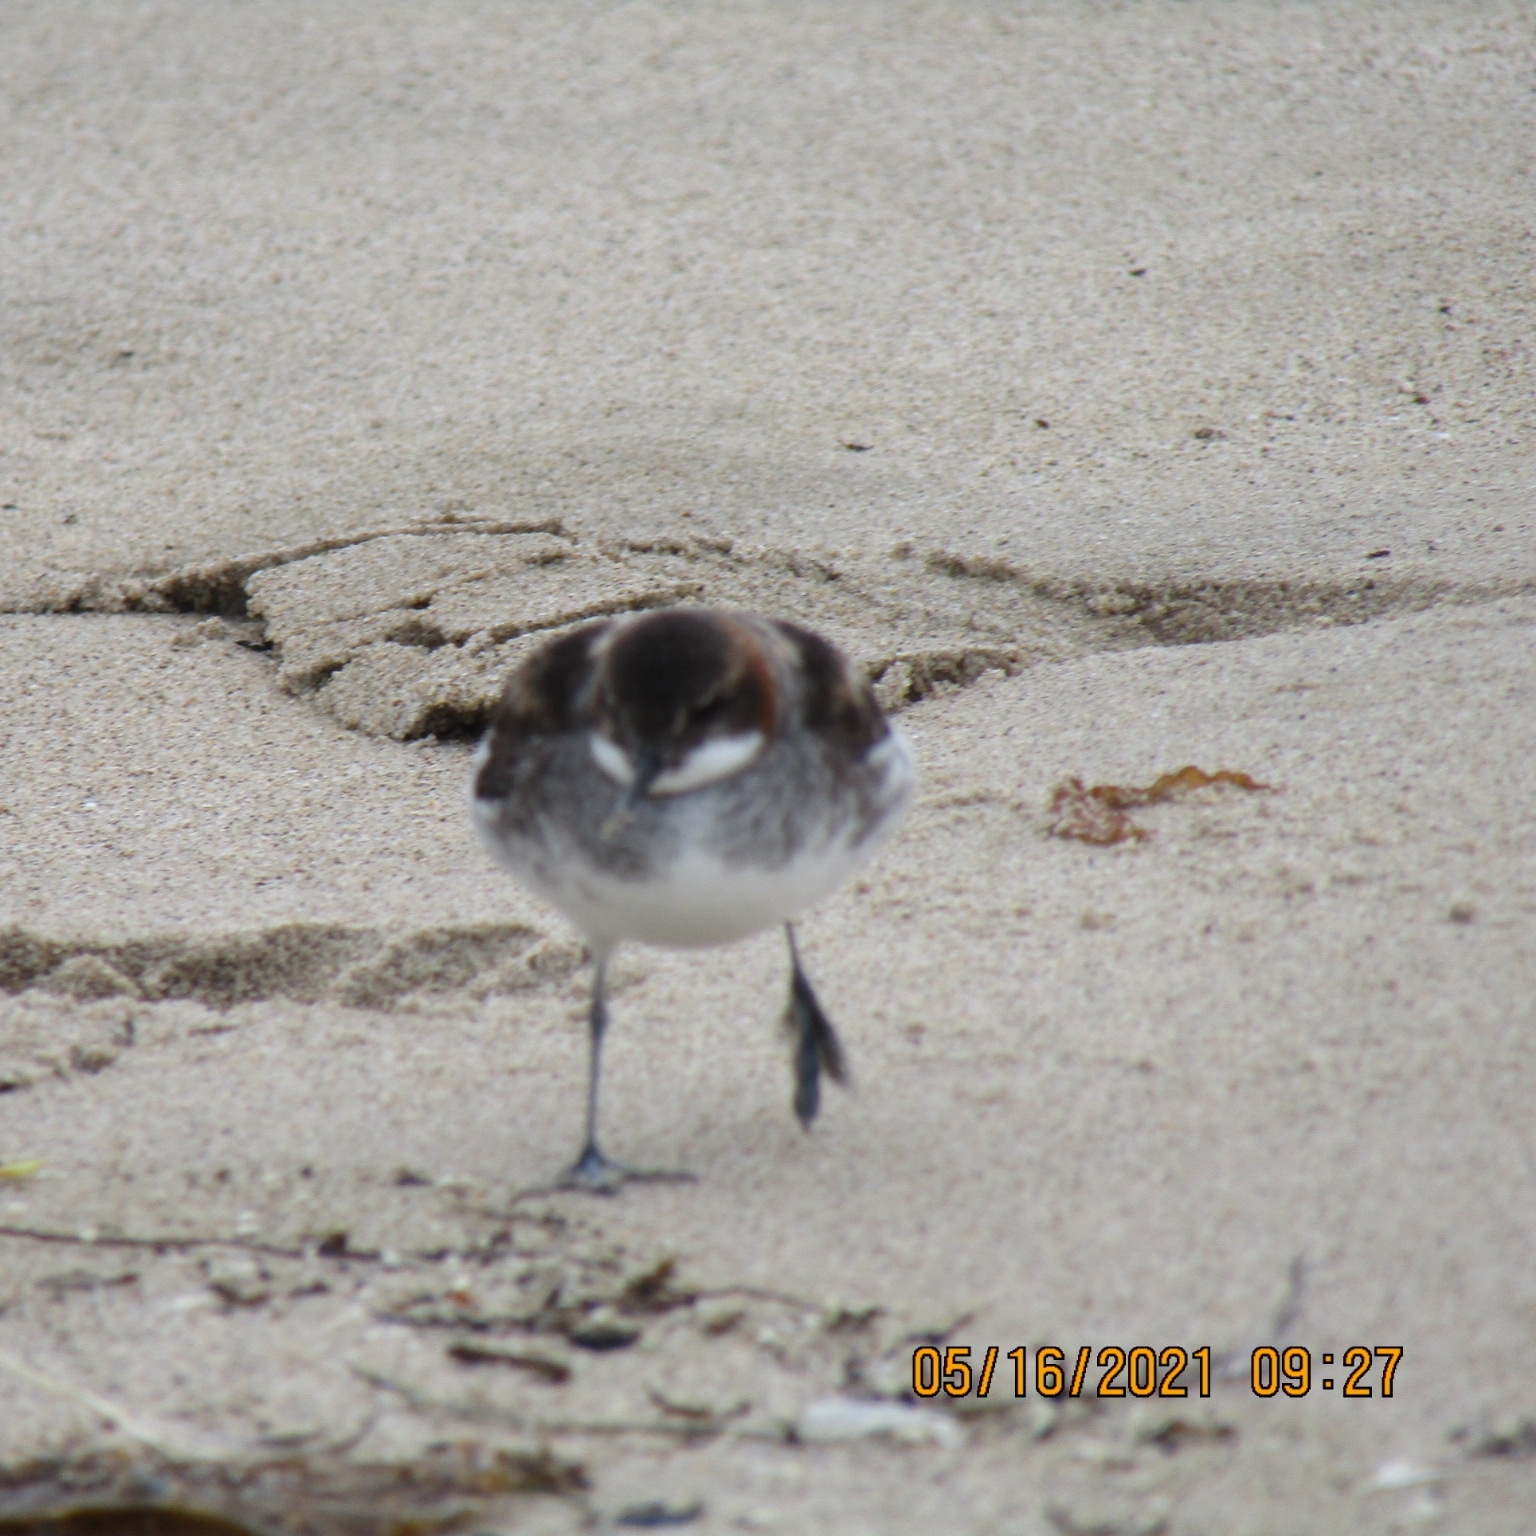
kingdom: Animalia
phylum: Chordata
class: Aves
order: Charadriiformes
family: Scolopacidae
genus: Phalaropus
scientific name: Phalaropus lobatus
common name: Red-necked phalarope
